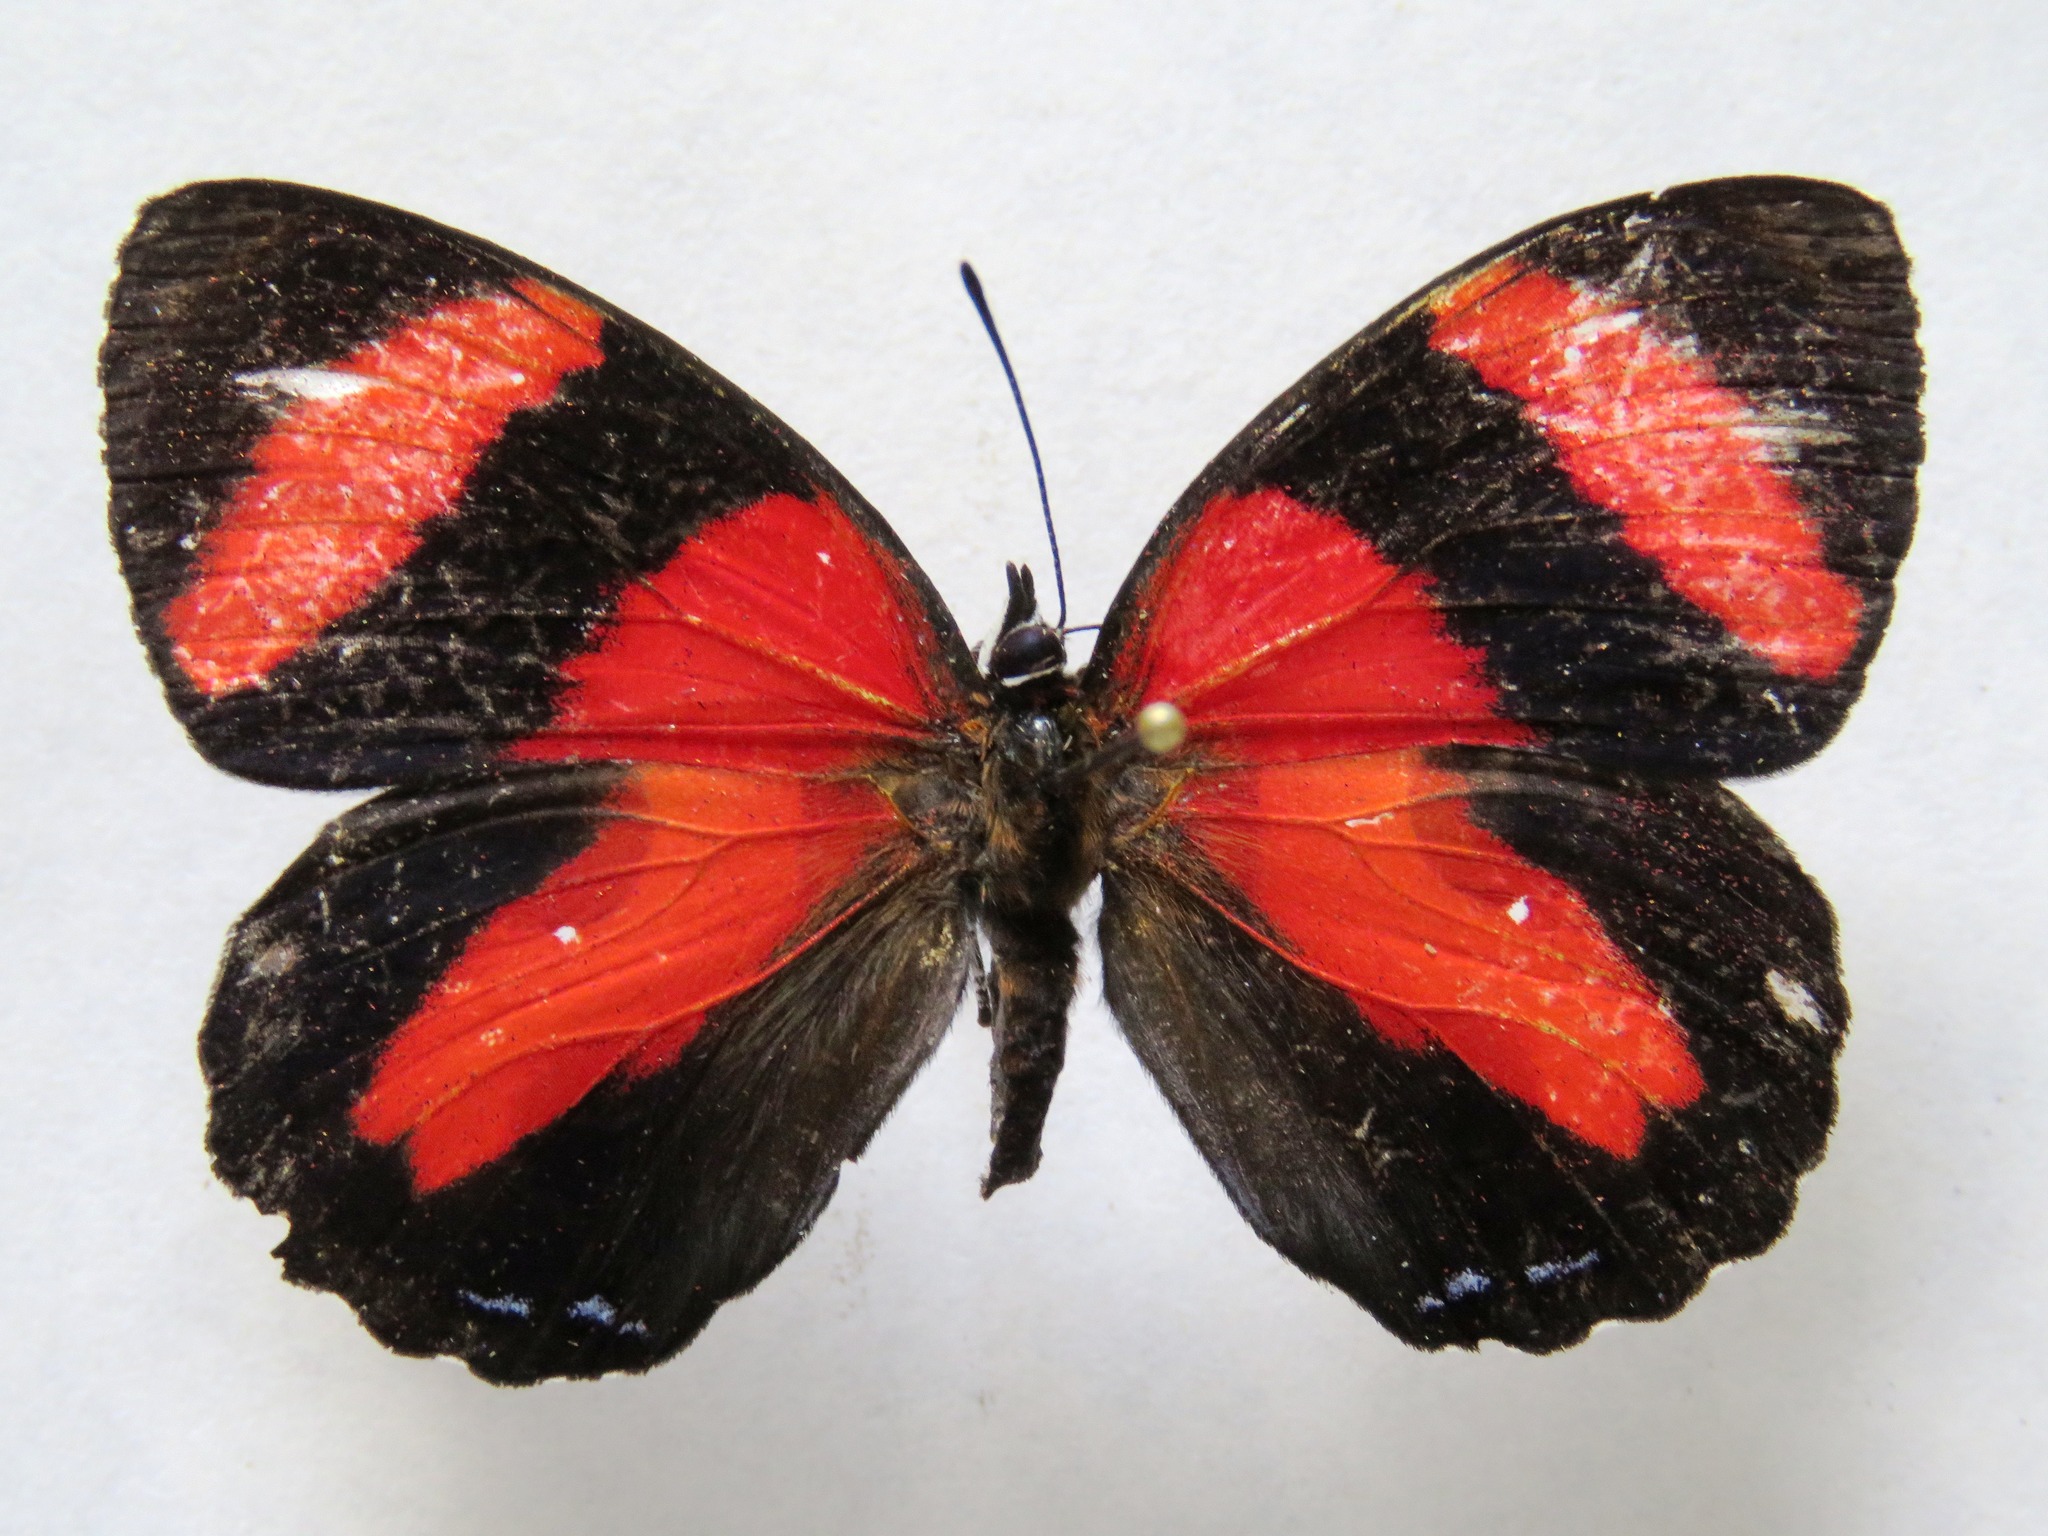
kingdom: Animalia
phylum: Arthropoda
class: Insecta
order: Lepidoptera
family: Nymphalidae
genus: Catagramma
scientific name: Catagramma Callicore pitheas
